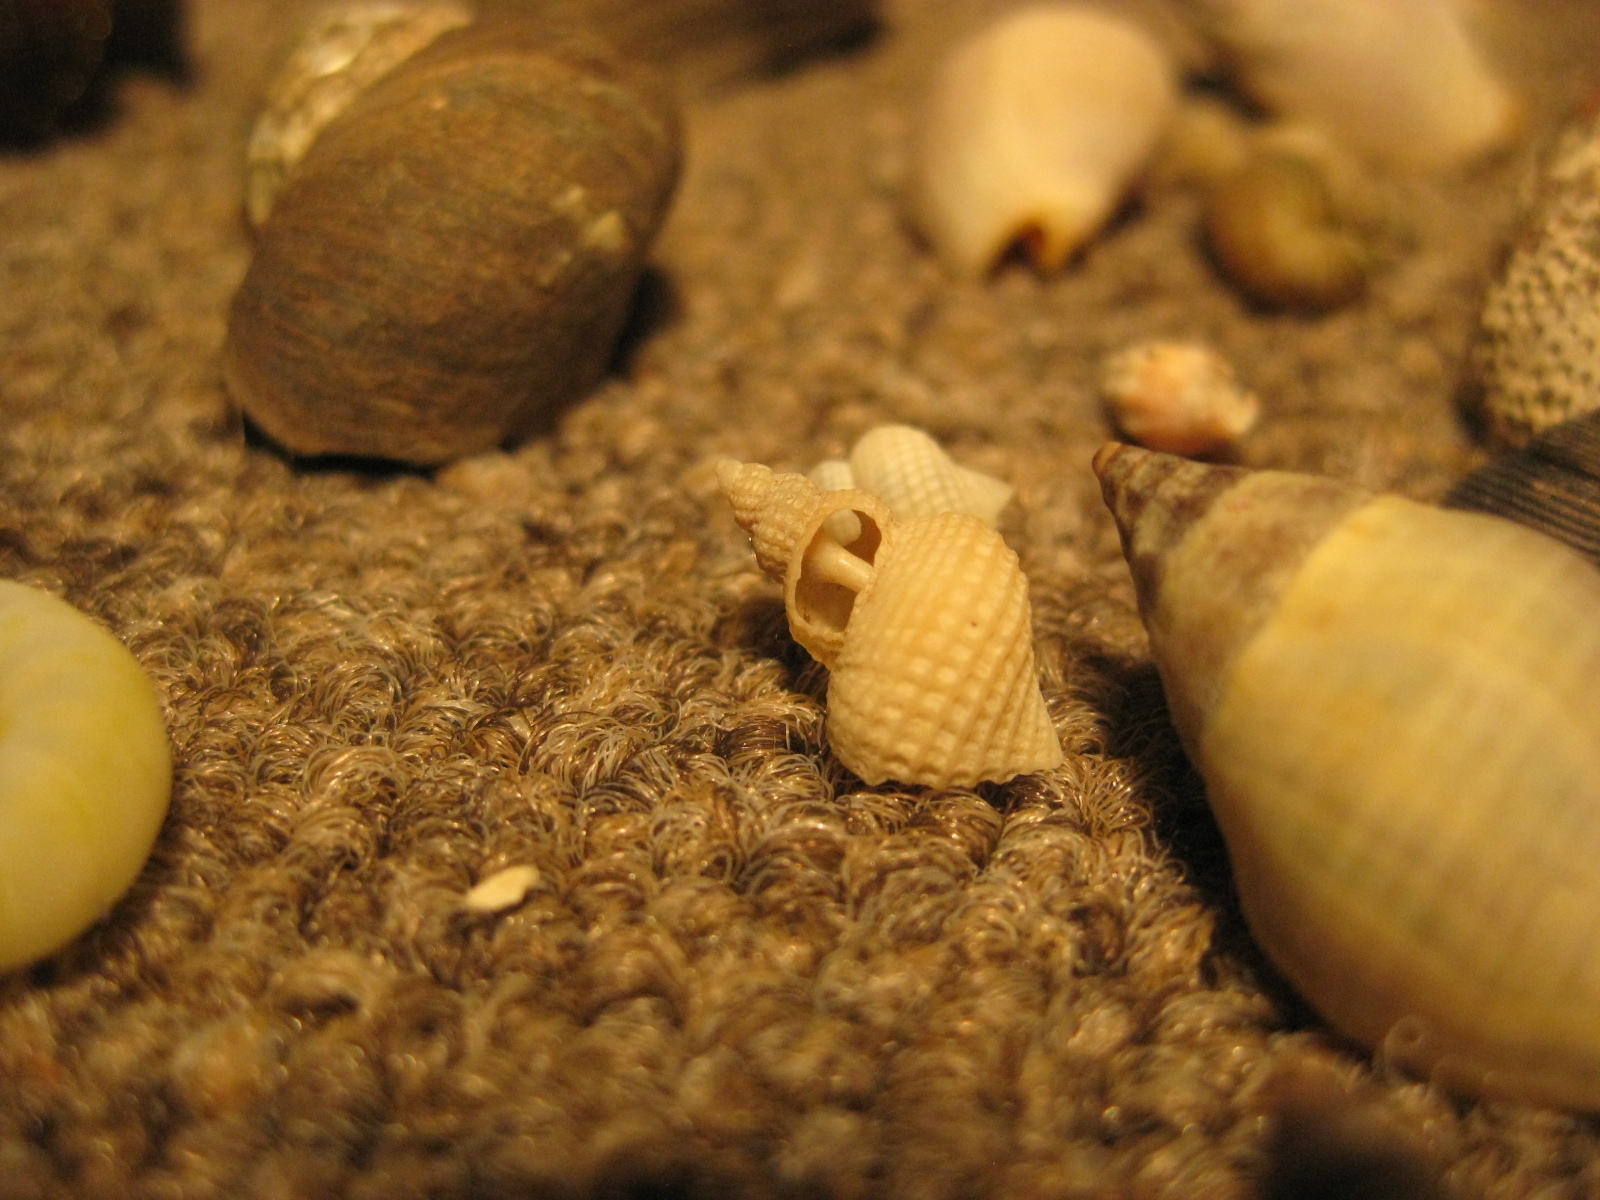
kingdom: Animalia
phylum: Mollusca
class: Gastropoda
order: Littorinimorpha
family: Capulidae
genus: Trichosirius
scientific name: Trichosirius inornatus
